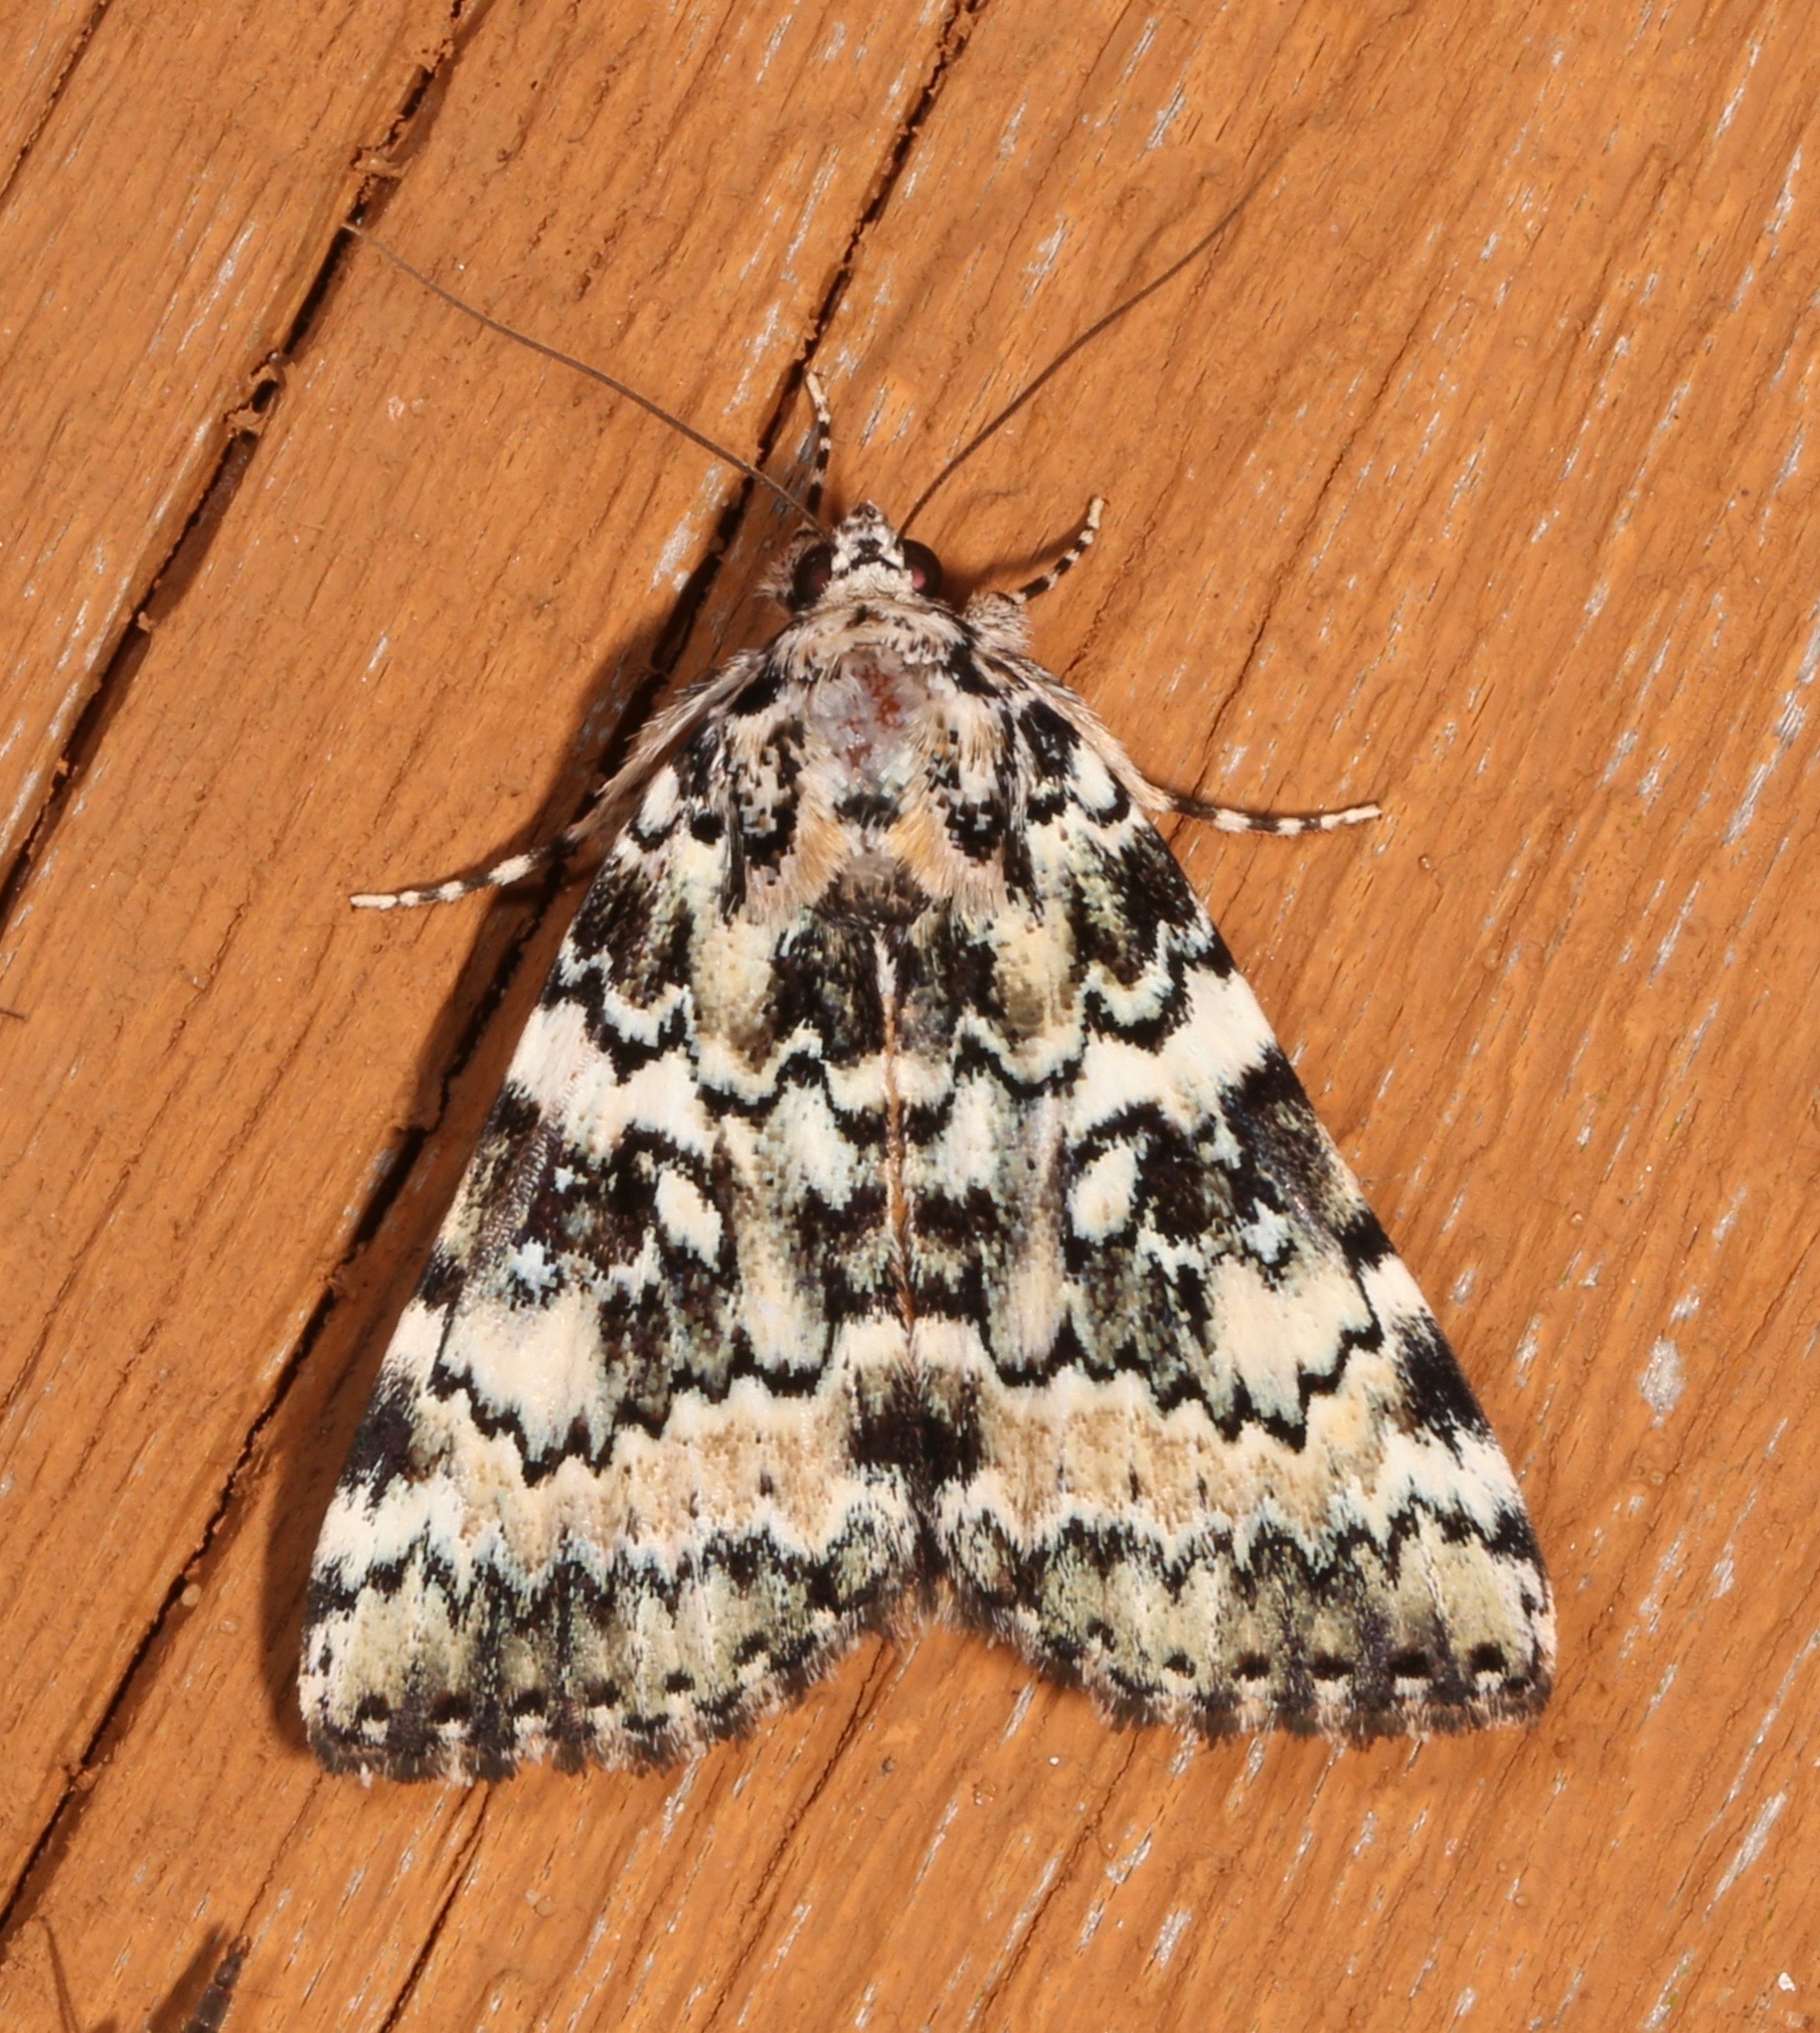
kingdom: Animalia
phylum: Arthropoda
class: Insecta
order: Lepidoptera
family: Erebidae
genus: Catocala
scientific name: Catocala connubialis
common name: Connubial underwing
